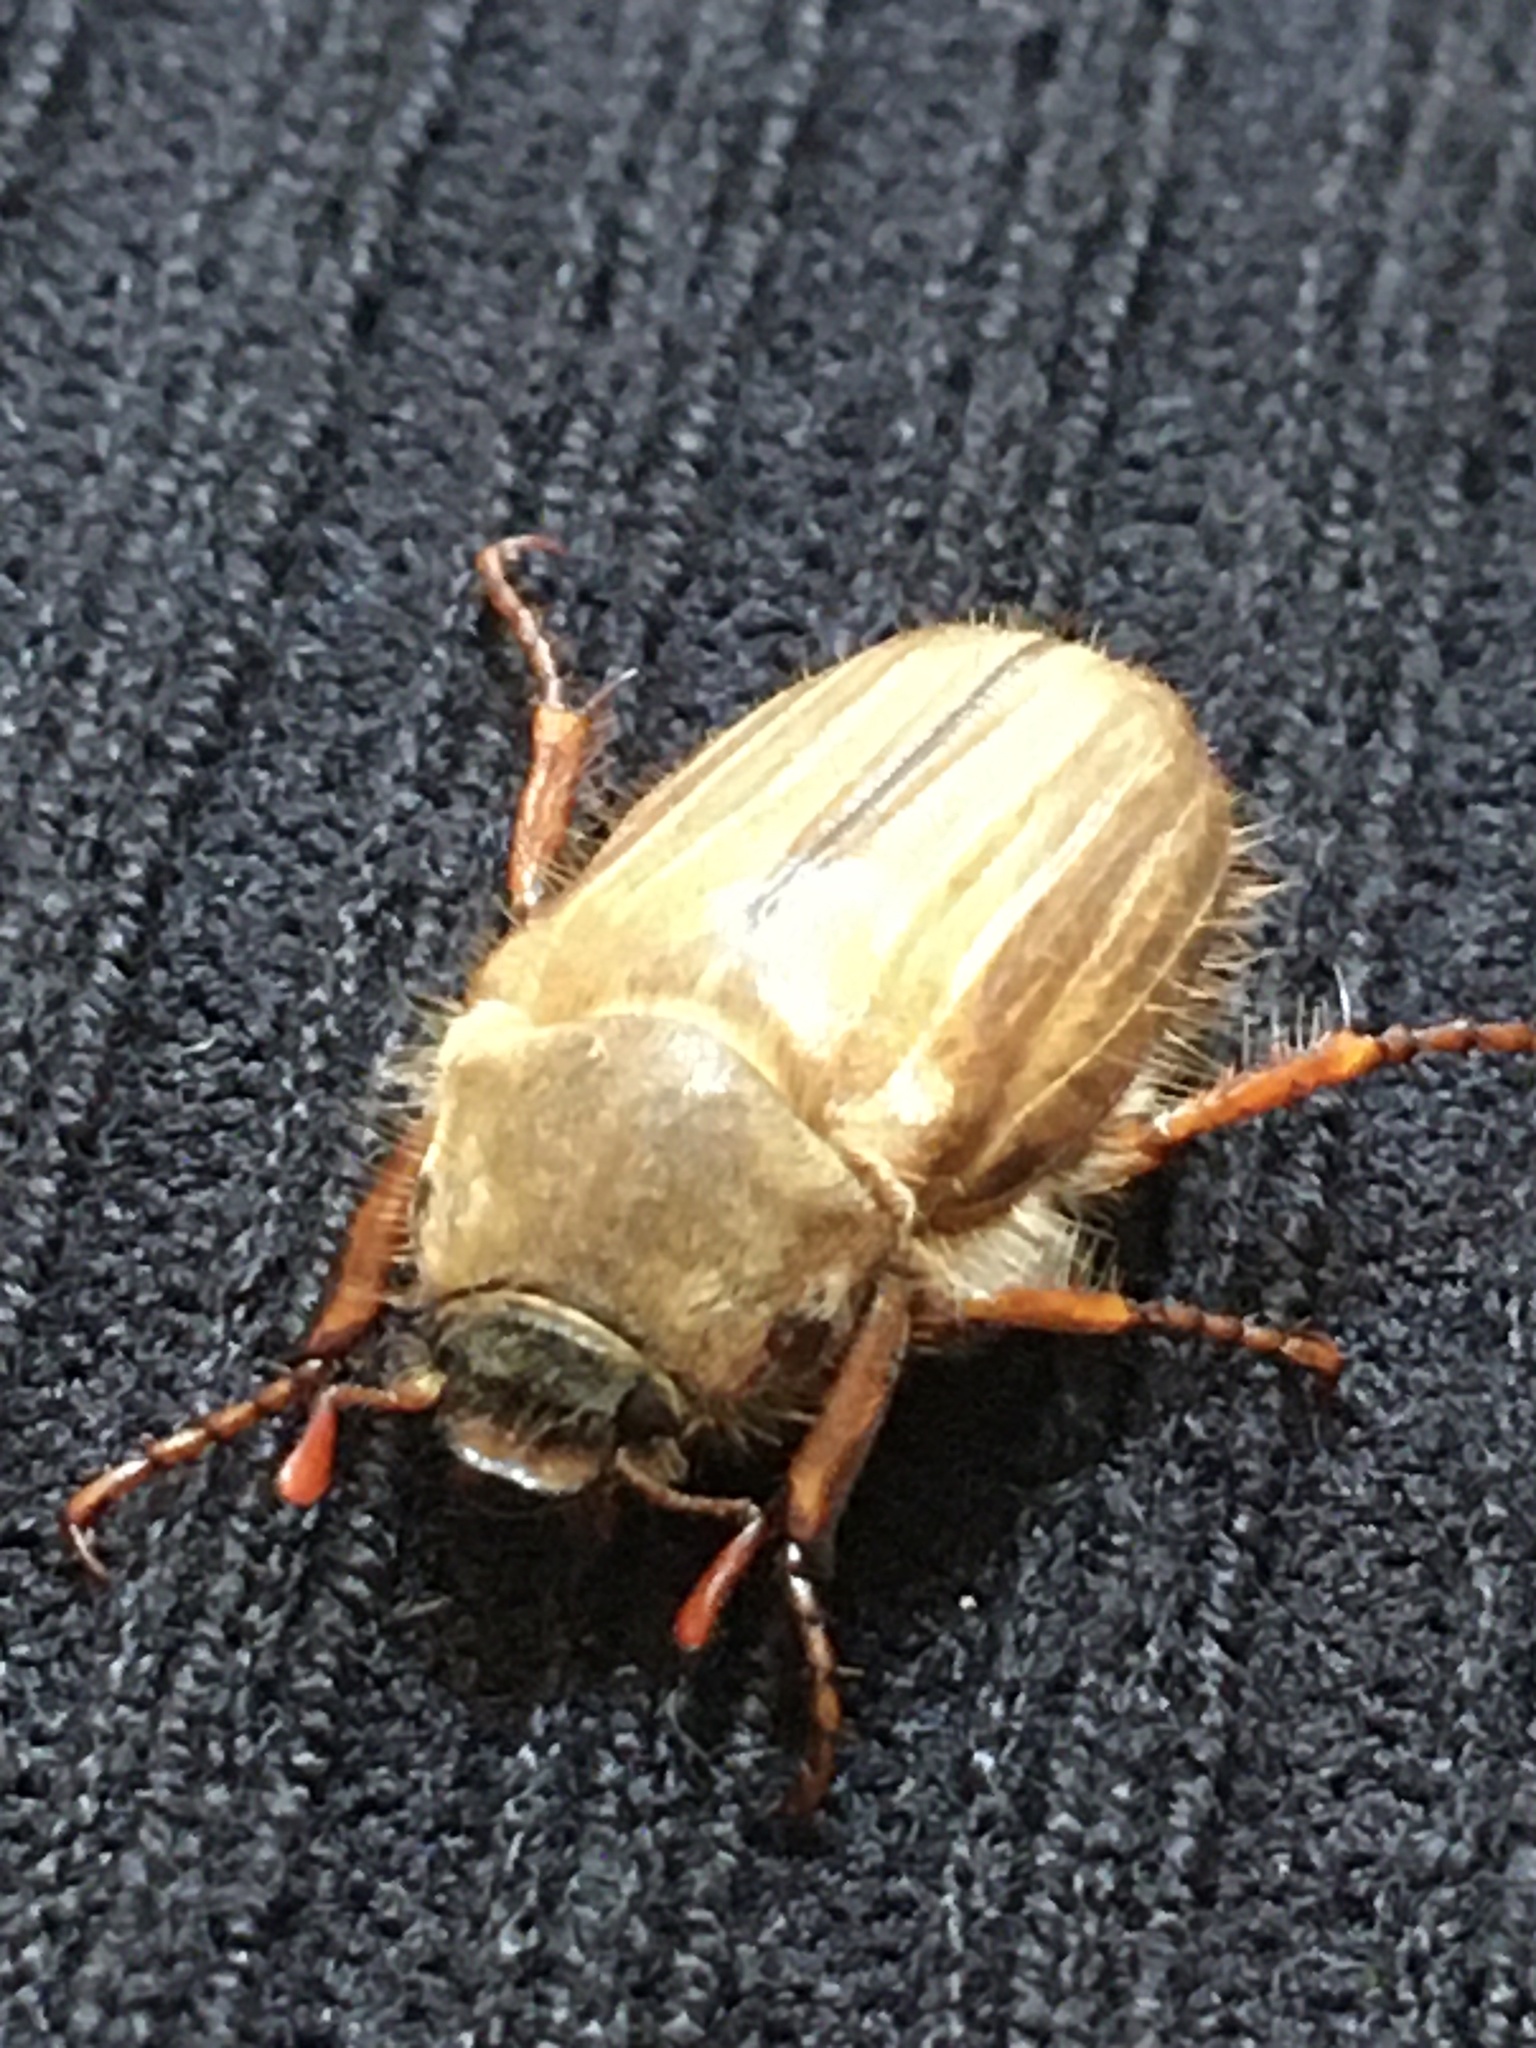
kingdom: Animalia
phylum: Arthropoda
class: Insecta
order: Coleoptera
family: Scarabaeidae
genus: Amphimallon
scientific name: Amphimallon solstitiale
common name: Summer chafer
